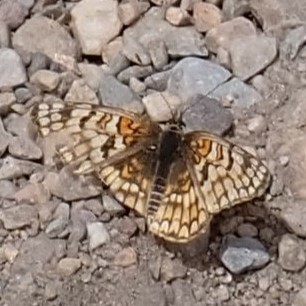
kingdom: Animalia
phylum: Arthropoda
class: Insecta
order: Lepidoptera
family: Nymphalidae
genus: Chlosyne
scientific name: Chlosyne acastus
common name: Sagebrush checkerspot
